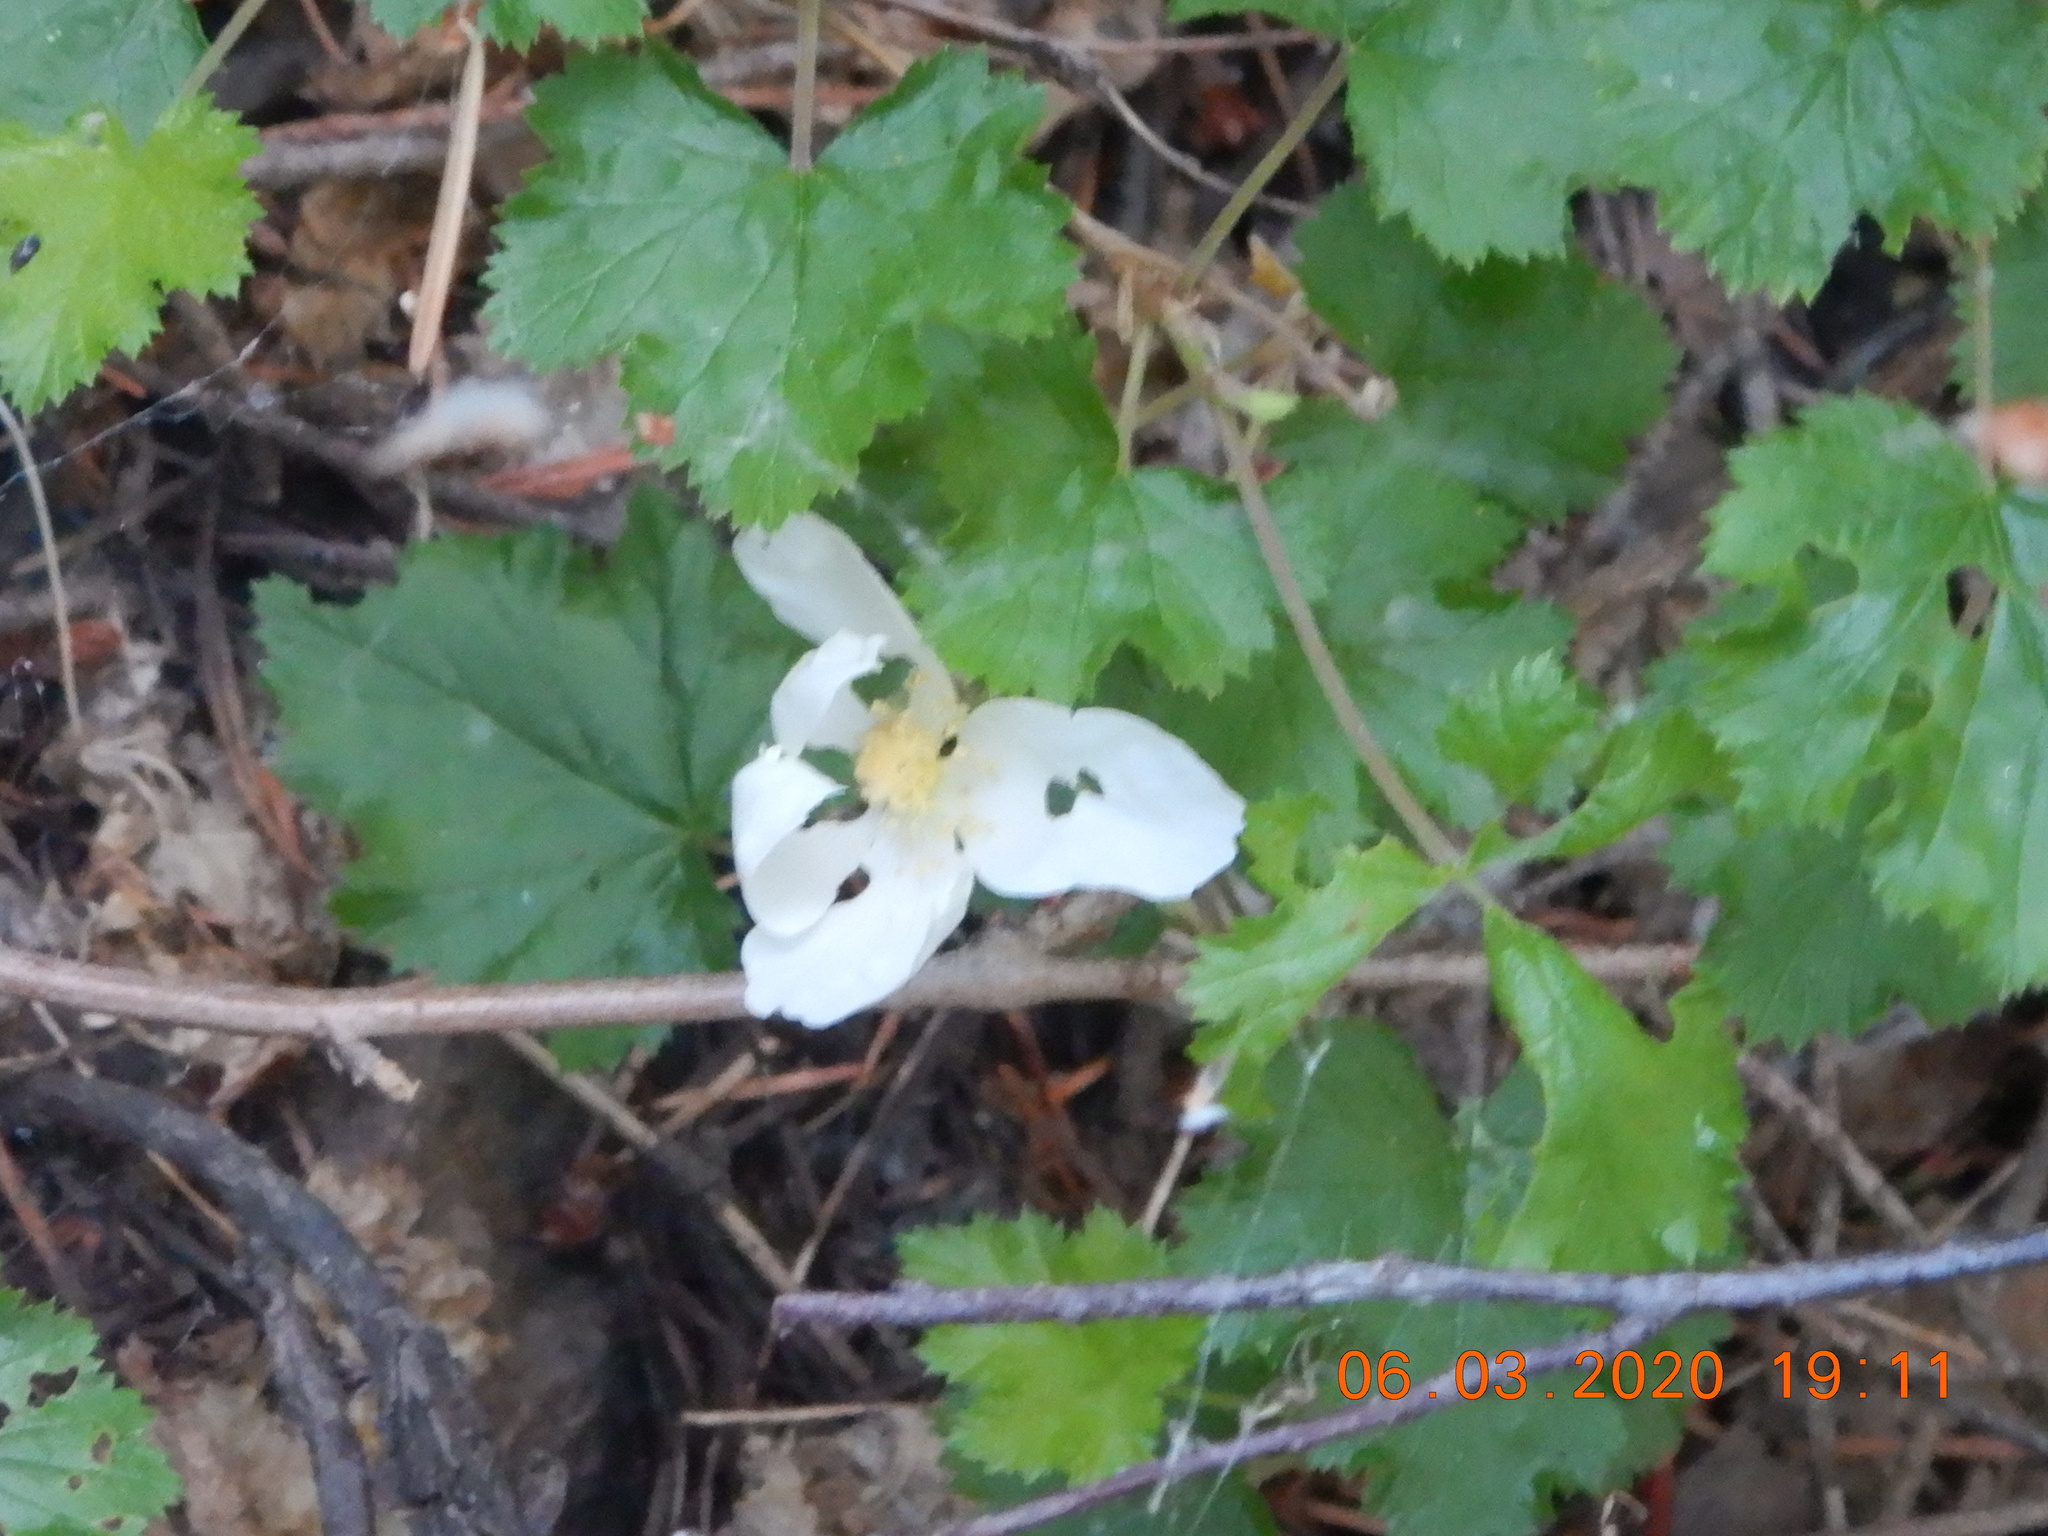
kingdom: Plantae
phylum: Tracheophyta
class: Magnoliopsida
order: Rosales
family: Rosaceae
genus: Rubus
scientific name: Rubus deliciosus
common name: Rocky mountain raspberry
